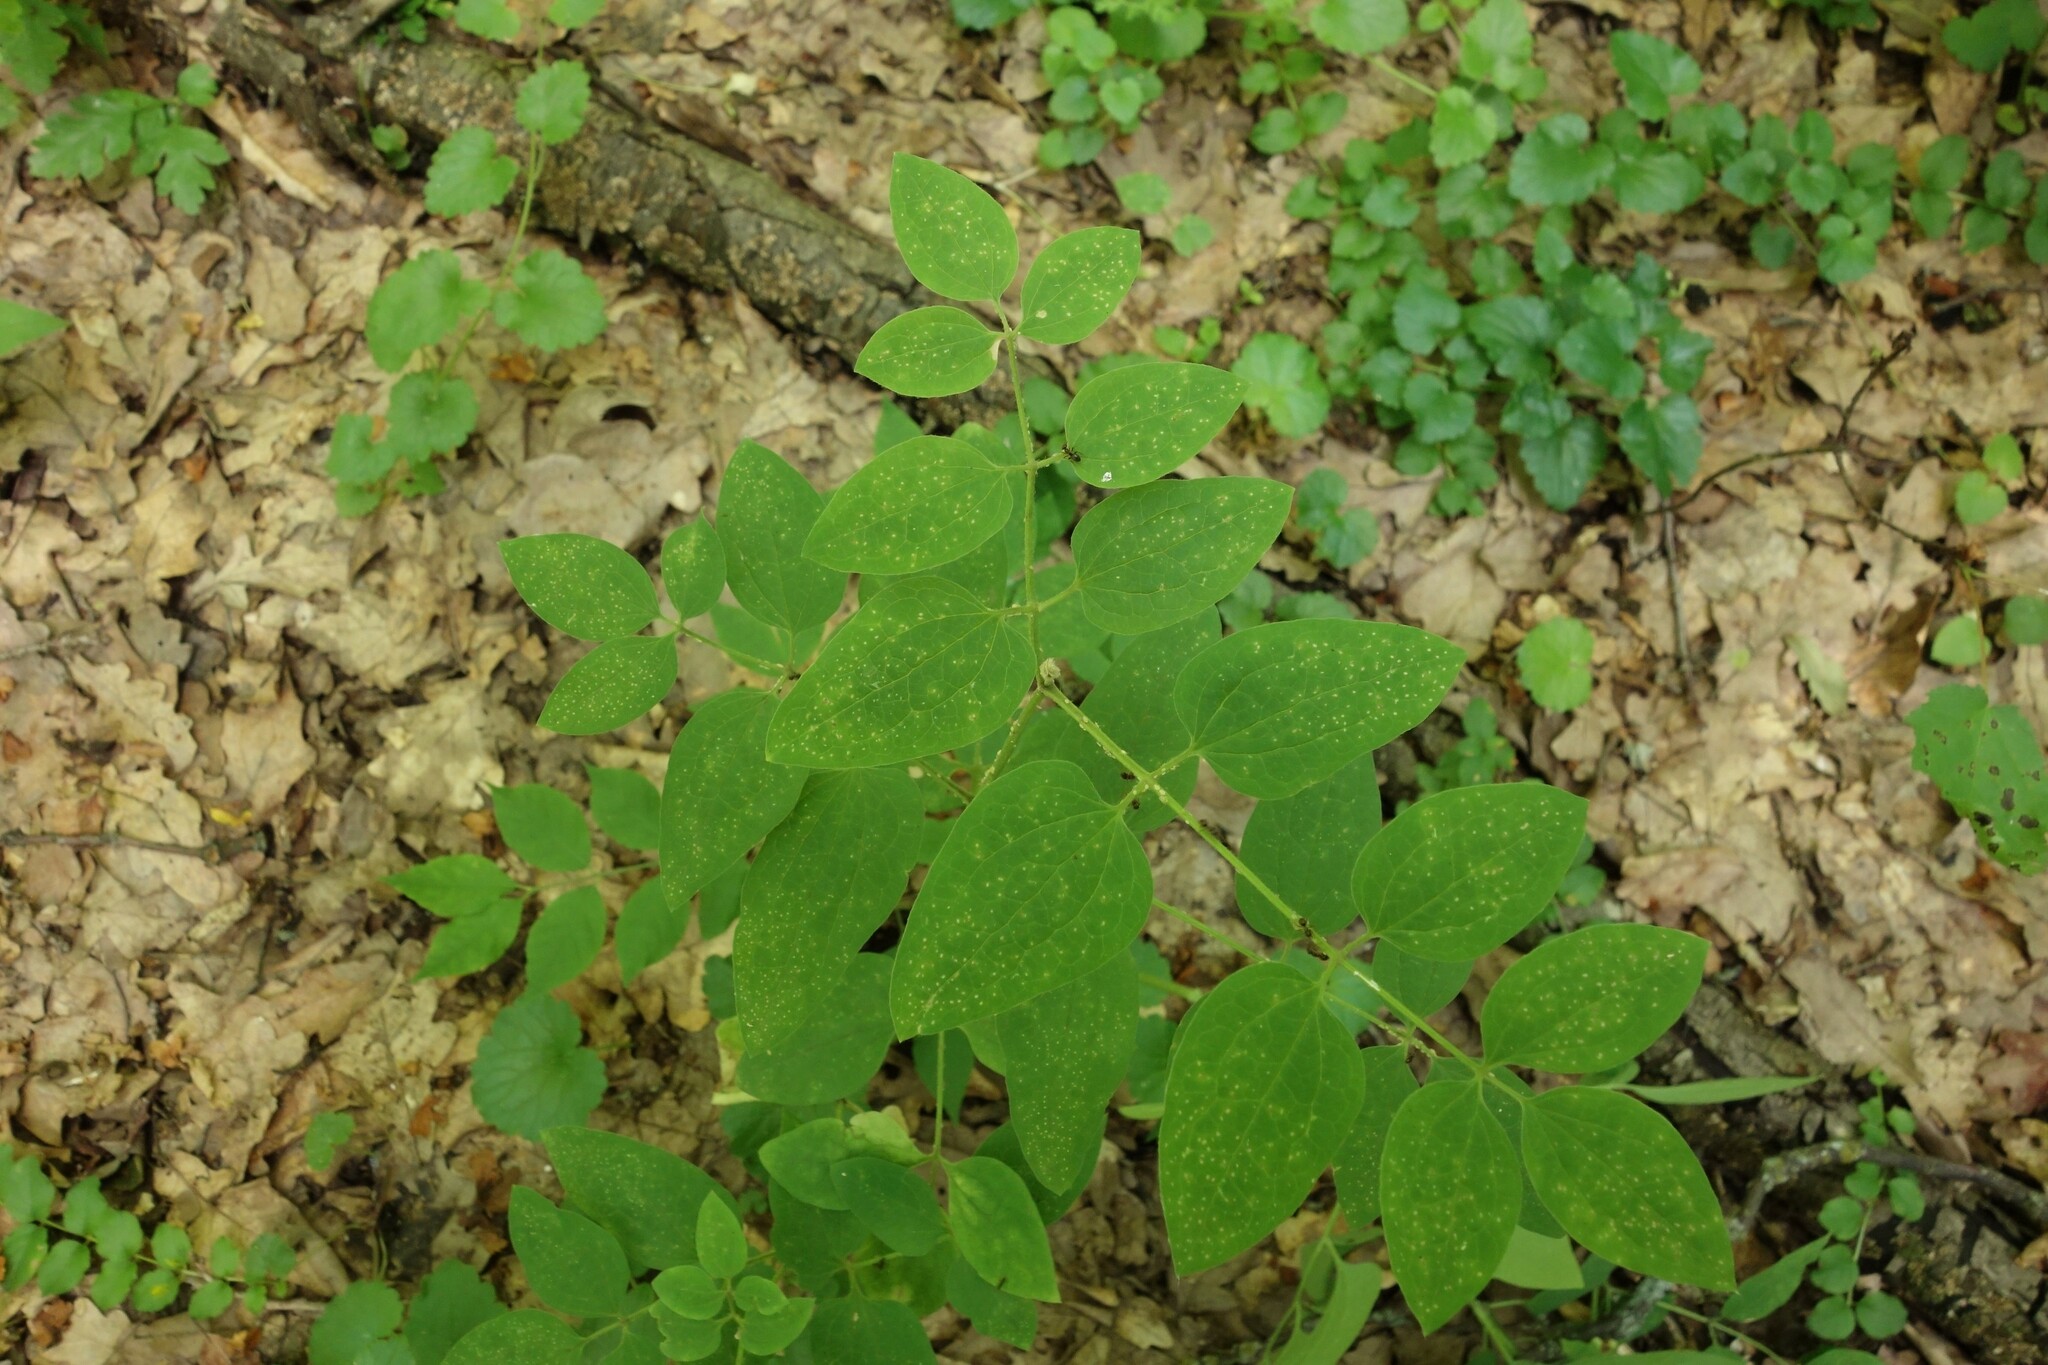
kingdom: Plantae
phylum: Tracheophyta
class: Magnoliopsida
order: Ranunculales
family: Ranunculaceae
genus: Clematis
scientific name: Clematis recta
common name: Ground clematis
